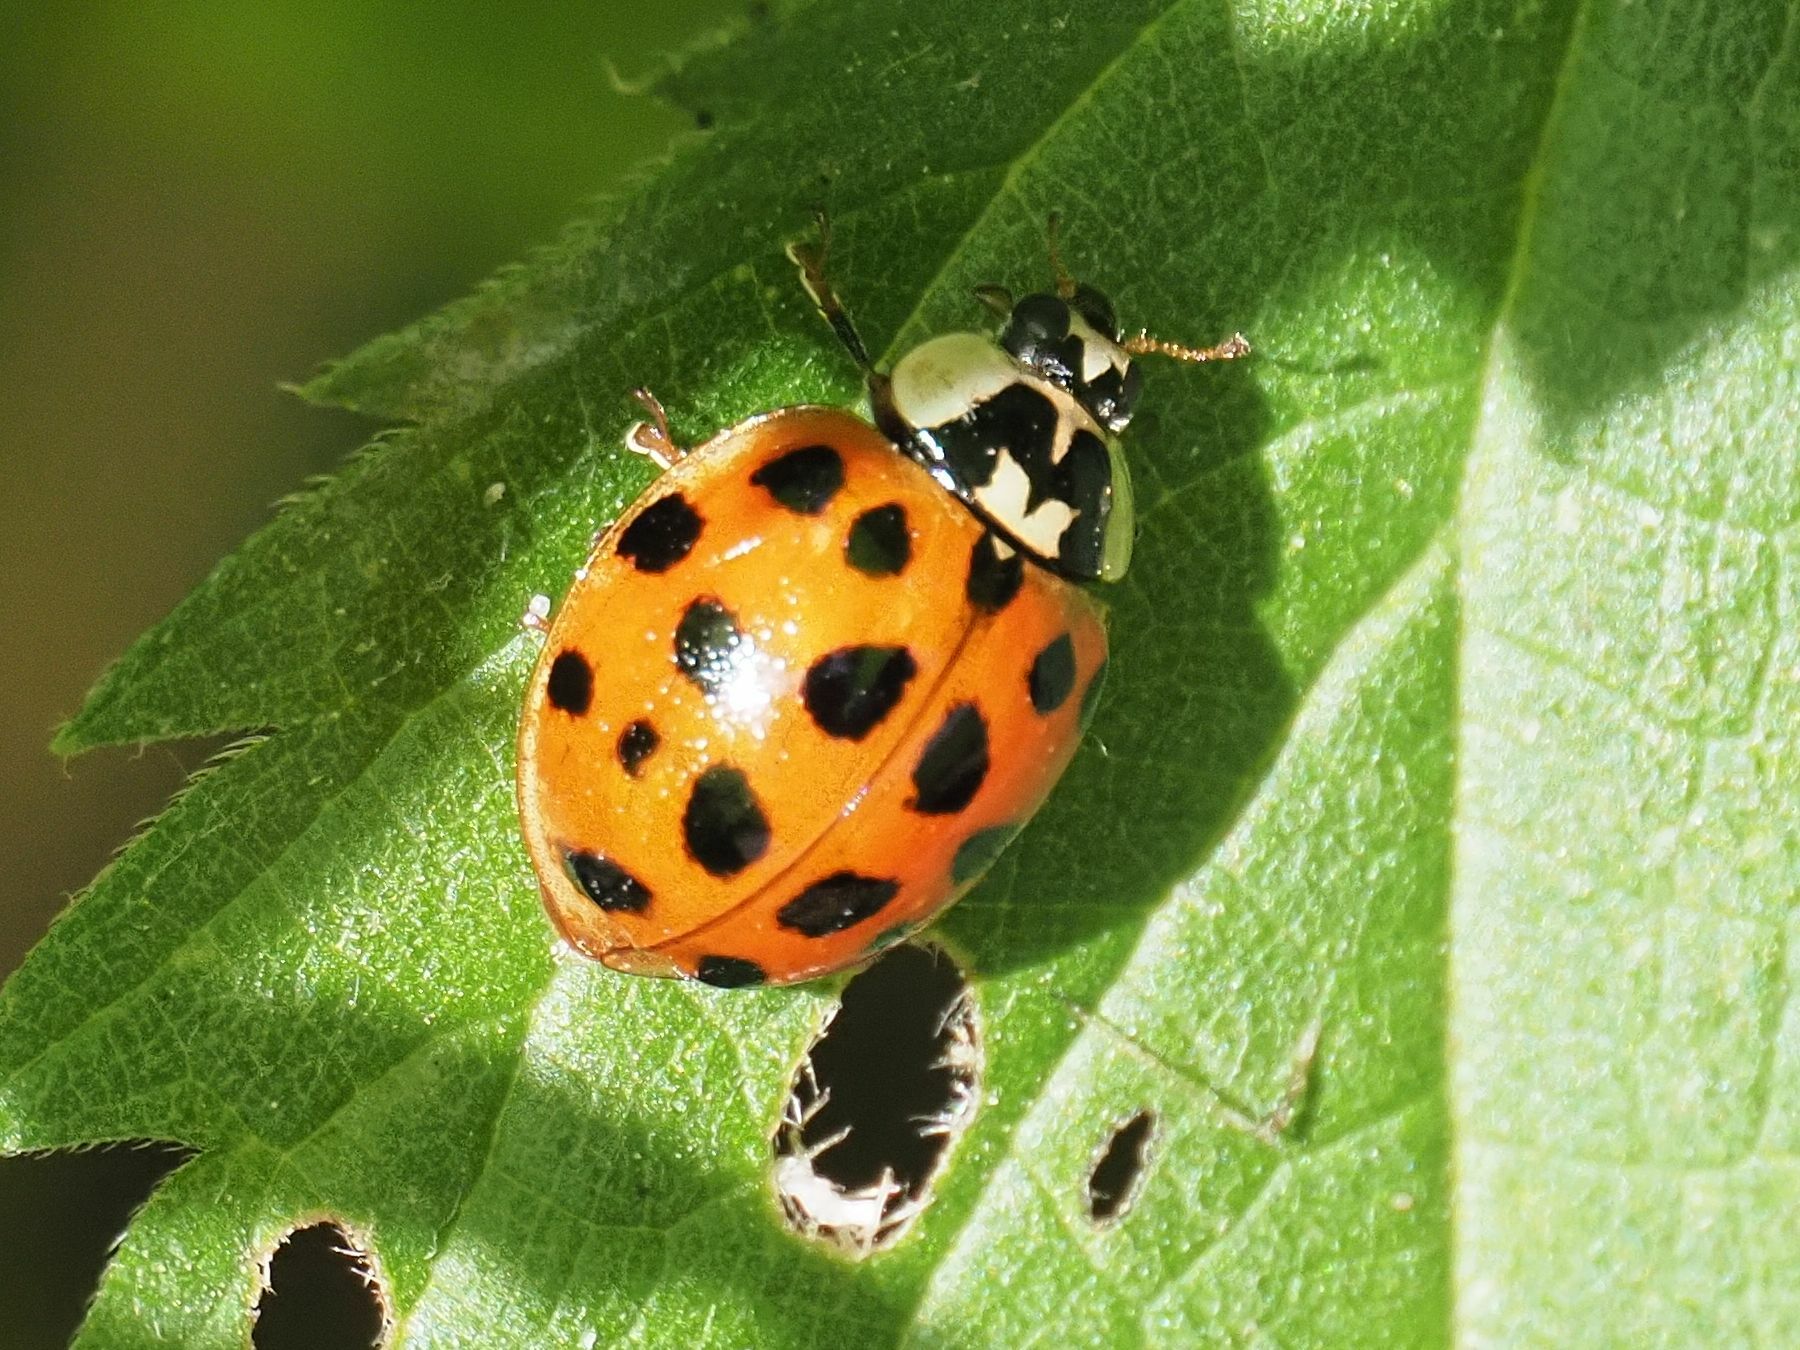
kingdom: Animalia
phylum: Arthropoda
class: Insecta
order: Coleoptera
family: Coccinellidae
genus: Harmonia
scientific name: Harmonia axyridis
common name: Harlequin ladybird
